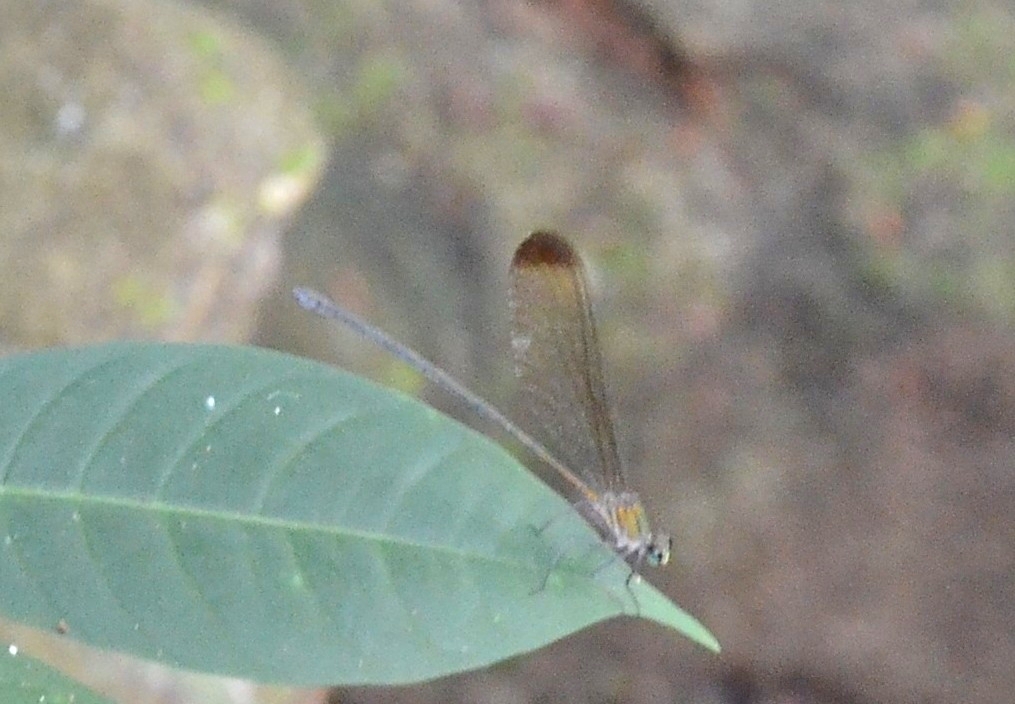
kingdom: Animalia
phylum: Arthropoda
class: Insecta
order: Odonata
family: Calopterygidae
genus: Vestalis
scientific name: Vestalis apicalis
